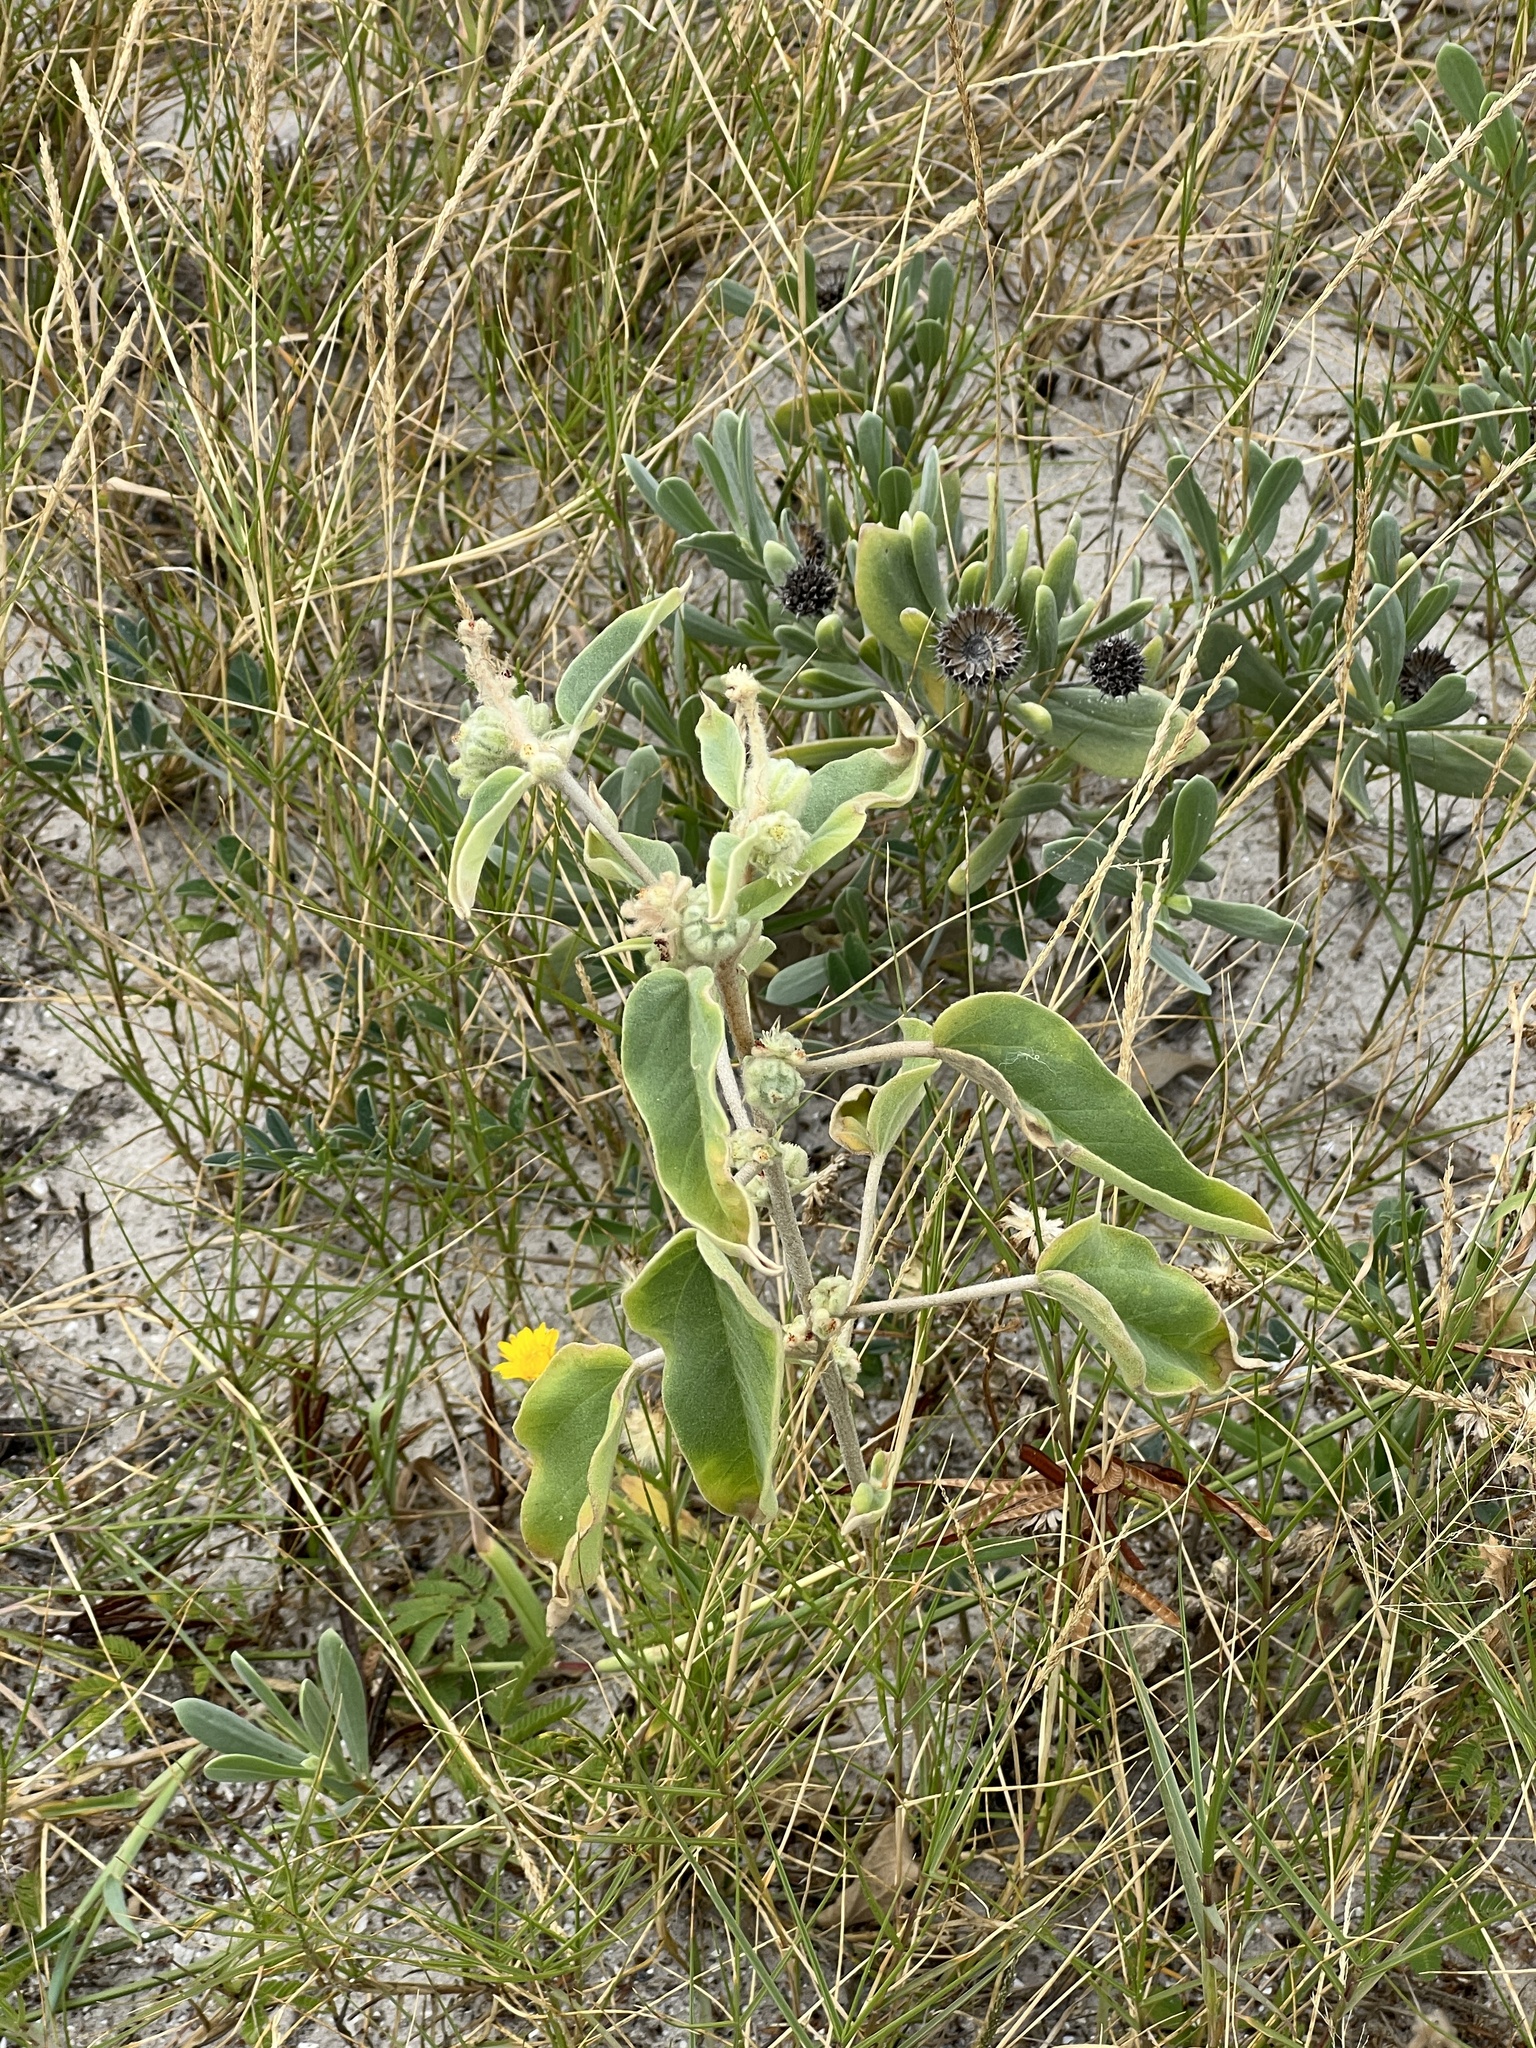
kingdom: Plantae
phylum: Tracheophyta
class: Magnoliopsida
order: Malpighiales
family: Euphorbiaceae
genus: Croton
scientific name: Croton lindheimeri
